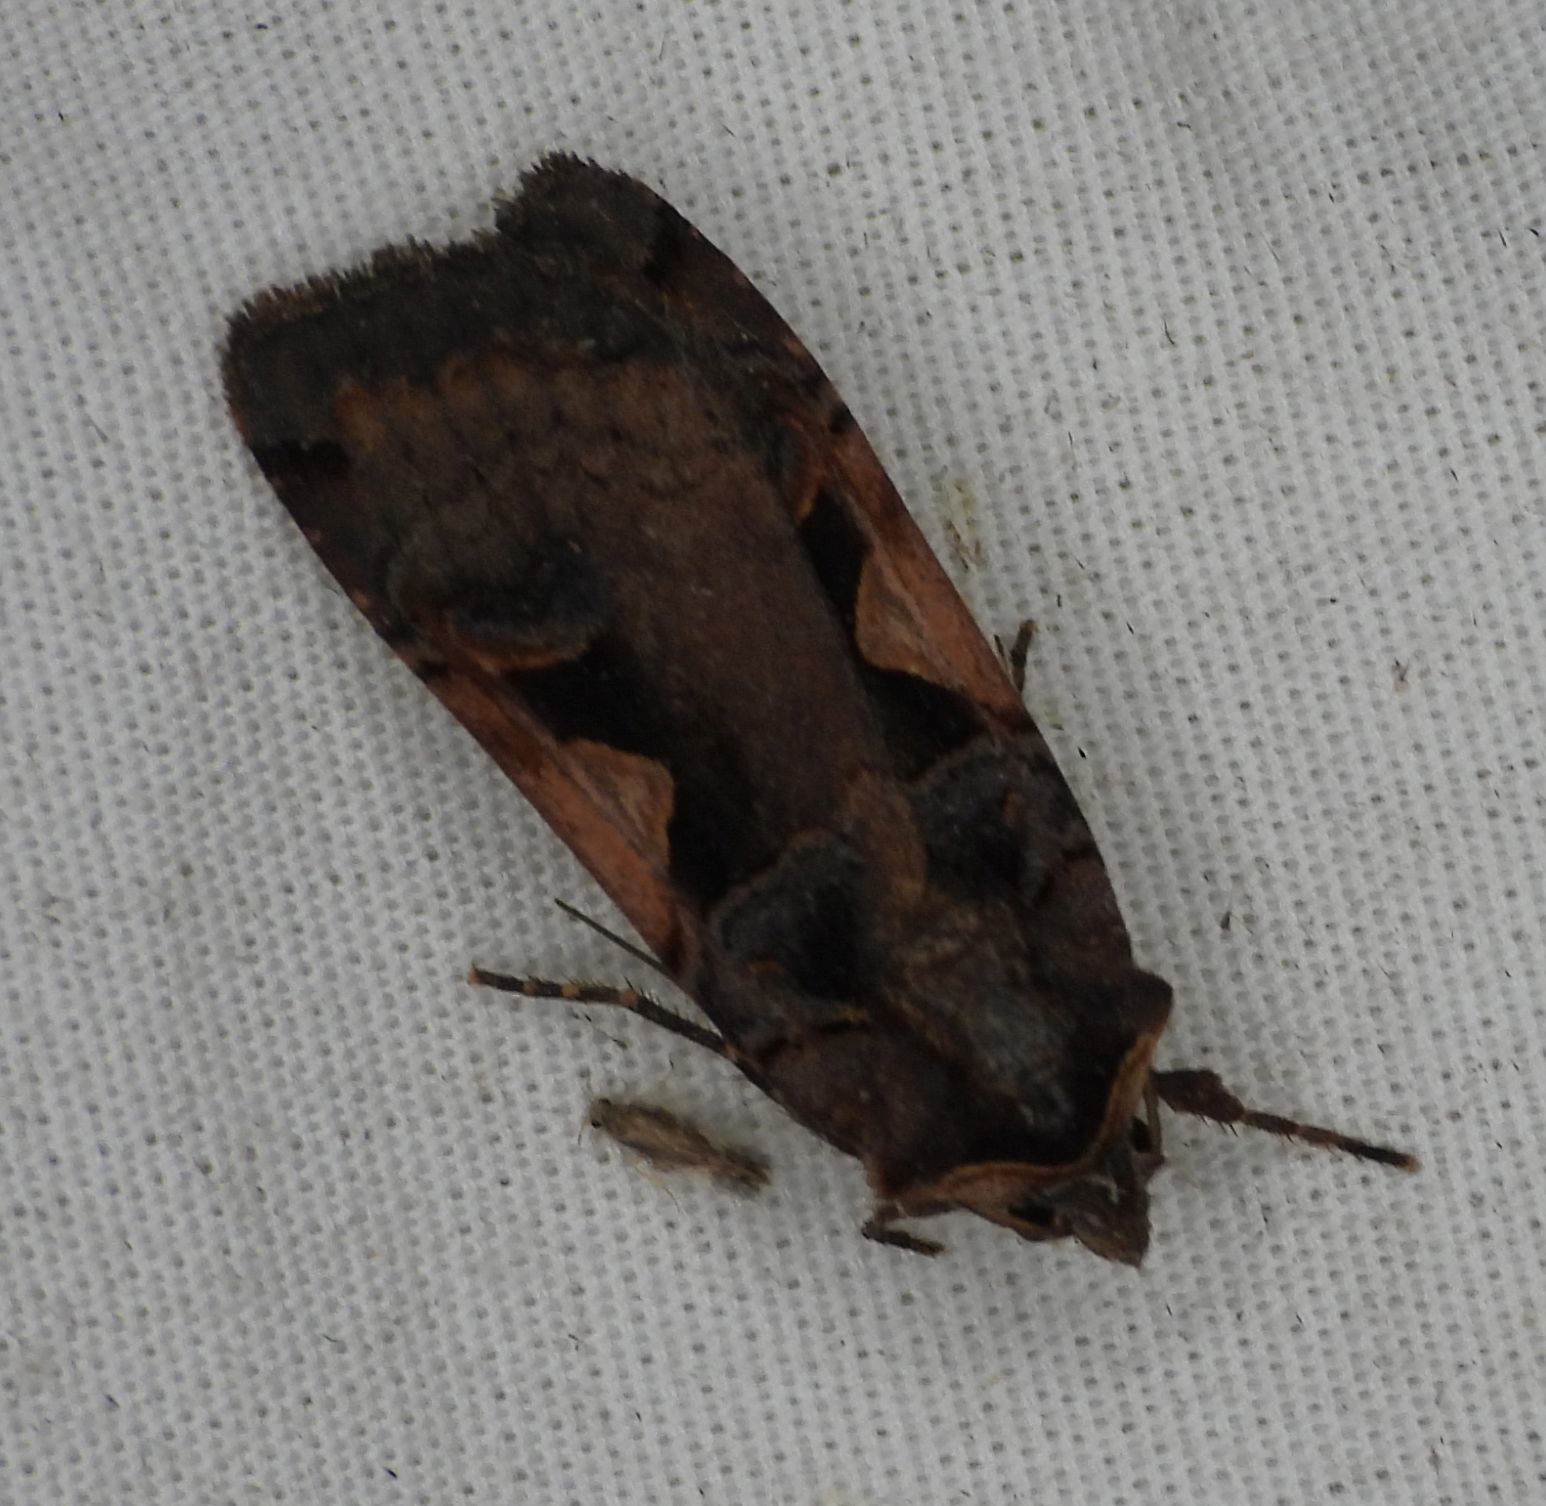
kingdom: Animalia
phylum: Arthropoda
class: Insecta
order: Lepidoptera
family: Noctuidae
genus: Xestia
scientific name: Xestia
